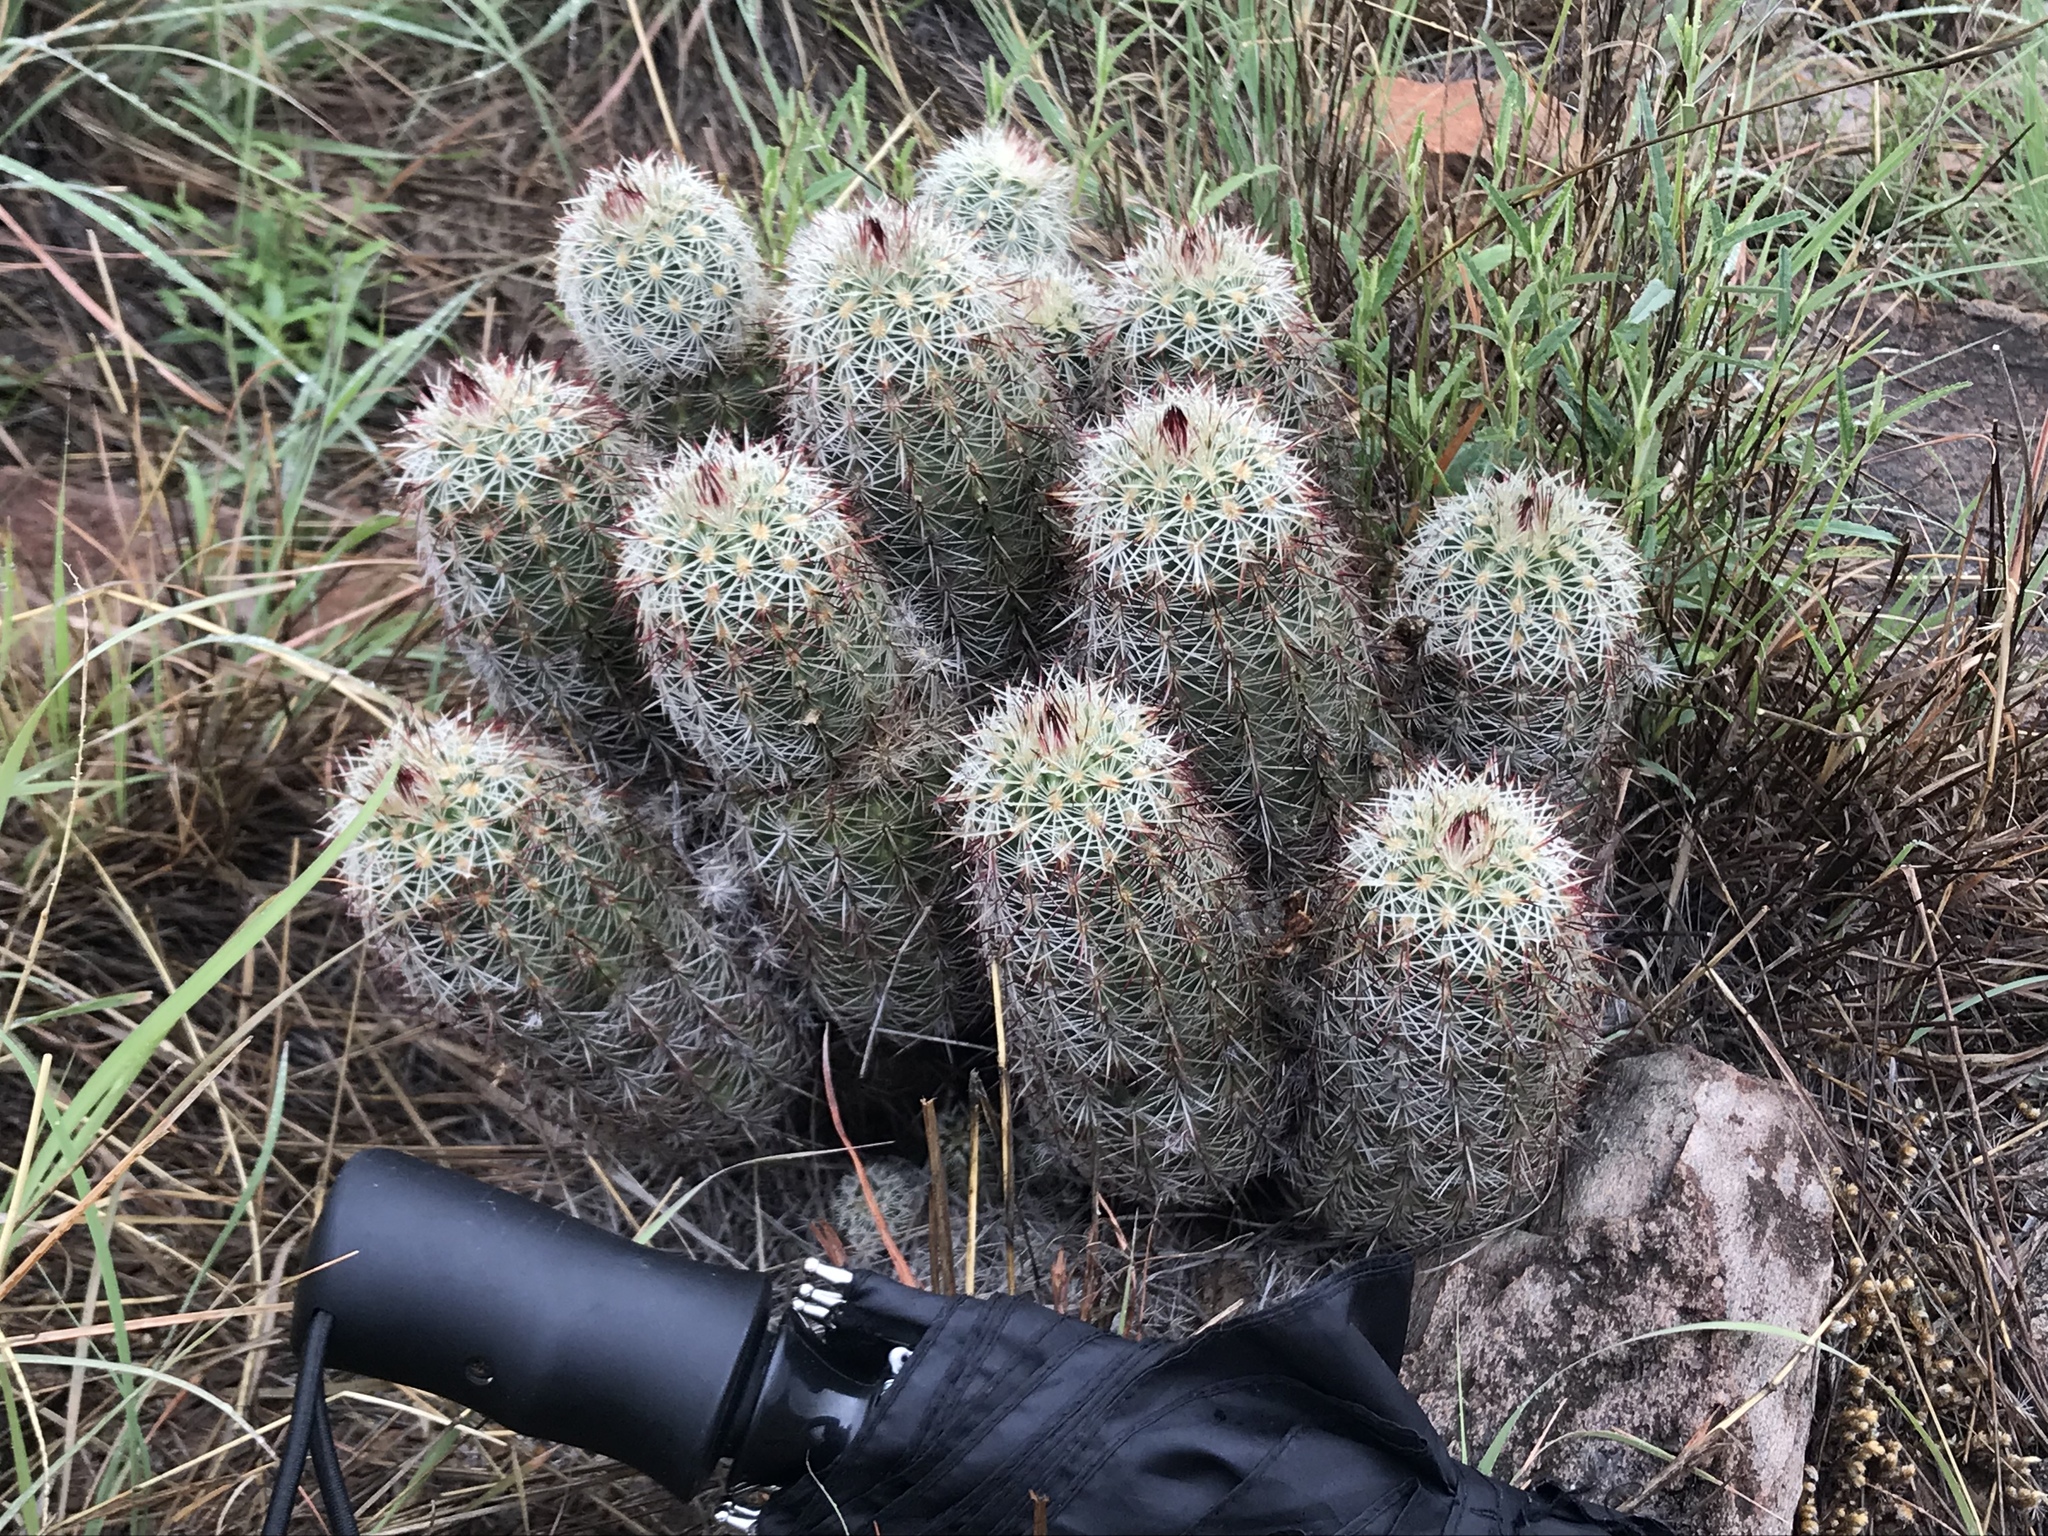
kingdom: Plantae
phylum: Tracheophyta
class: Magnoliopsida
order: Caryophyllales
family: Cactaceae
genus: Echinocereus
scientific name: Echinocereus viridiflorus
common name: Nylon hedgehog cactus
